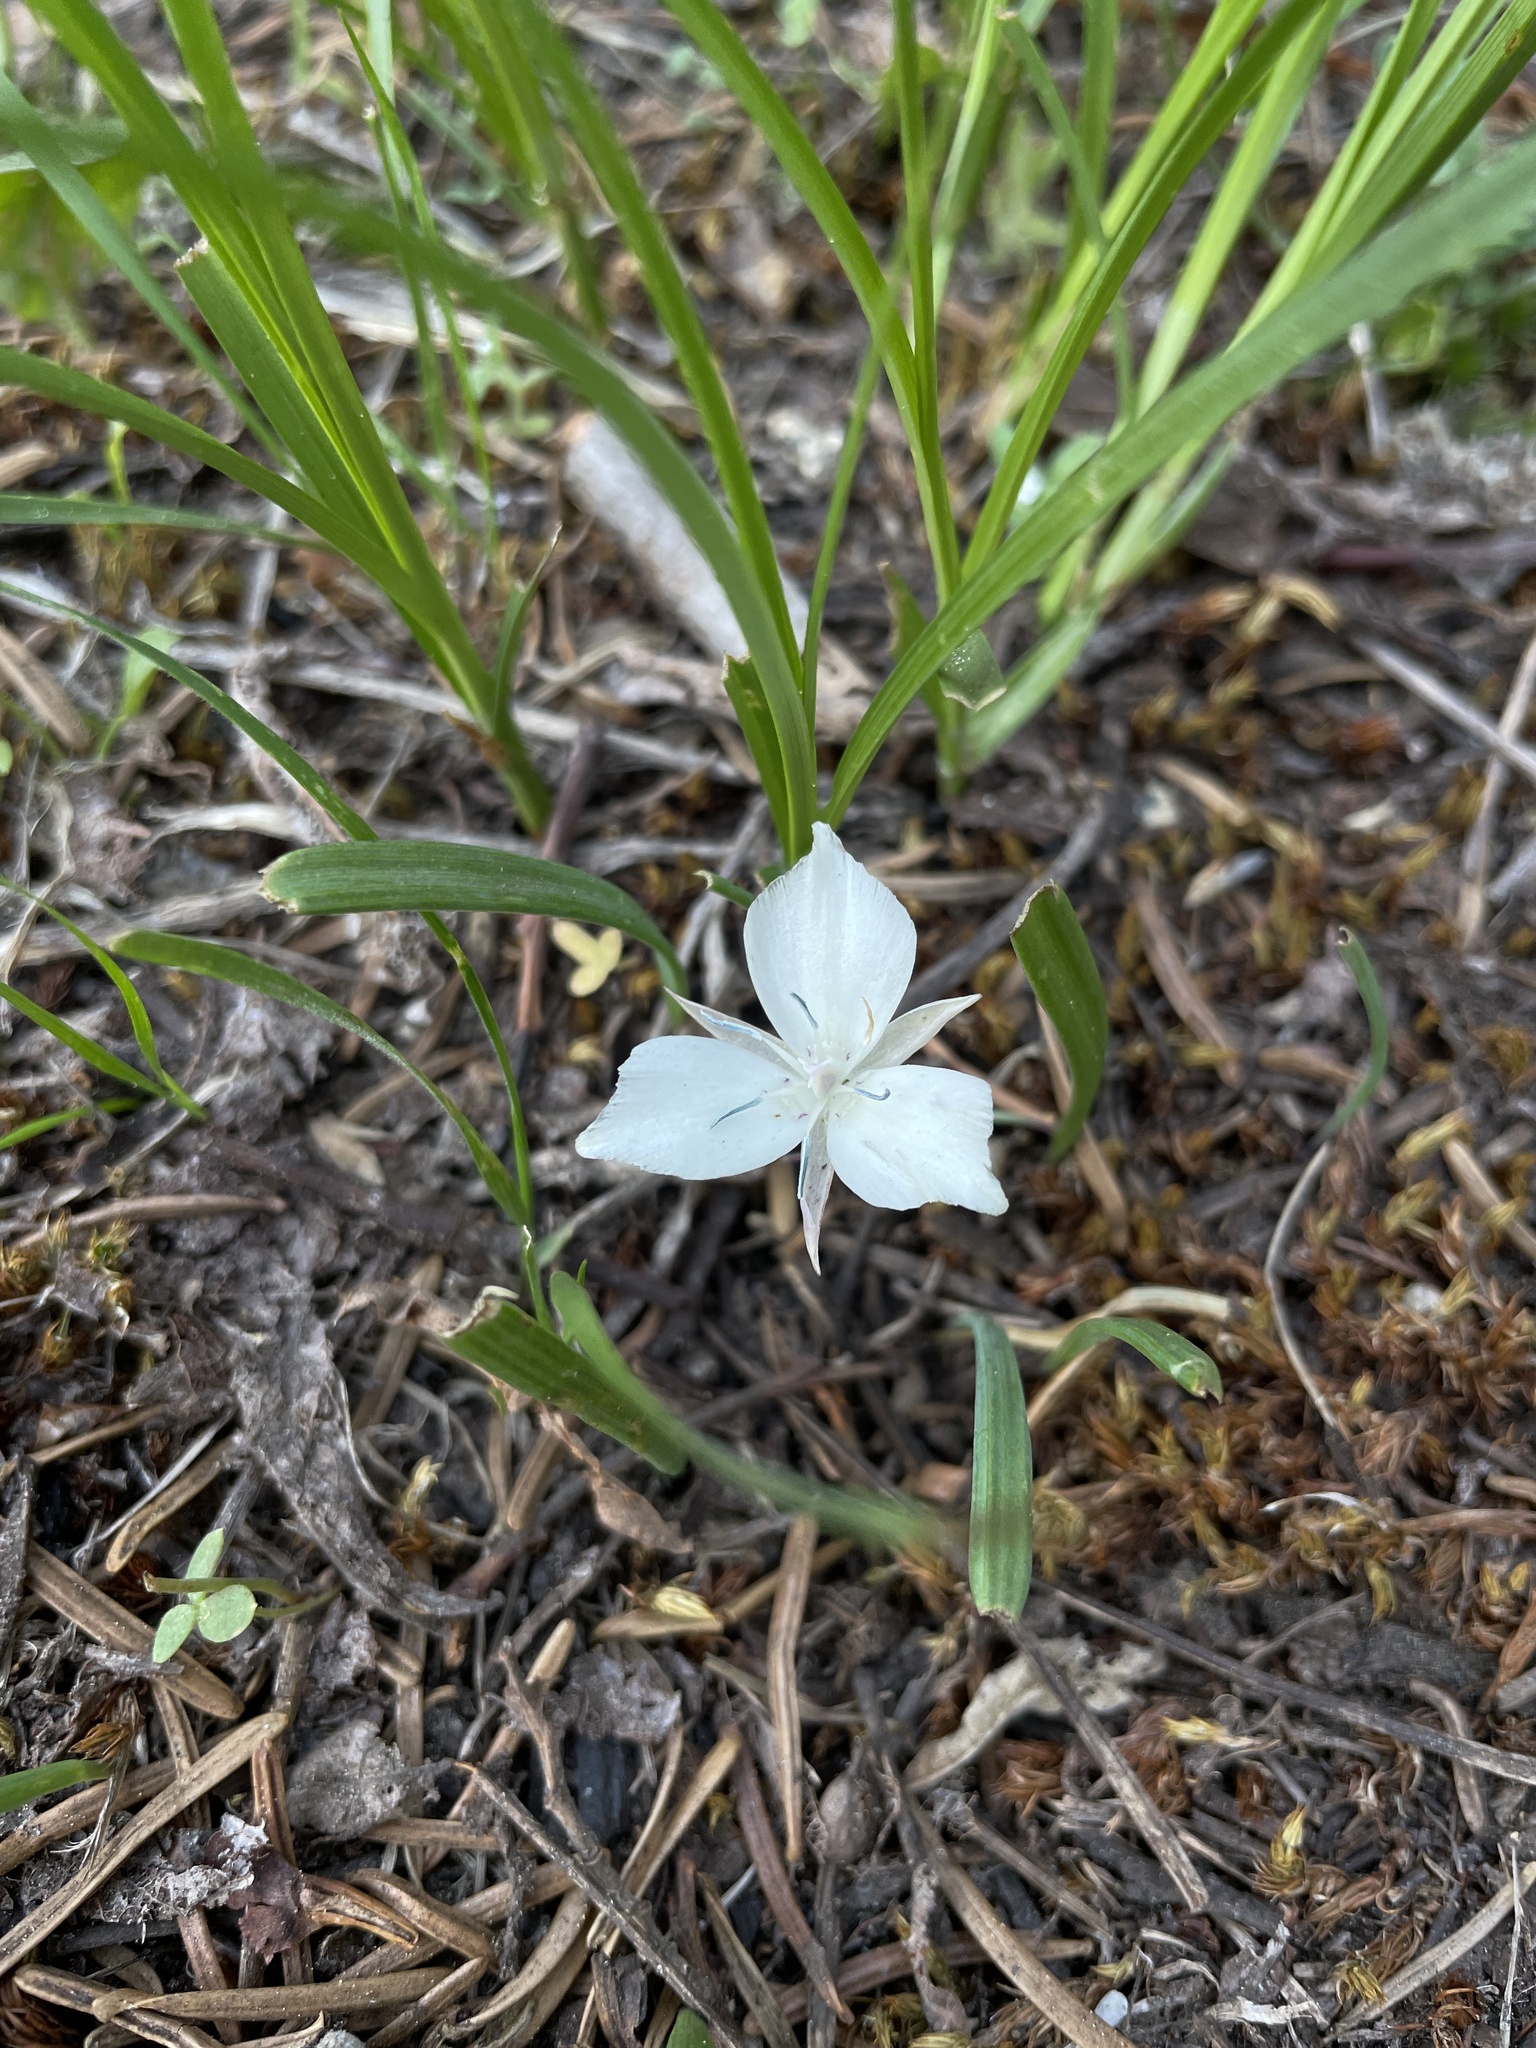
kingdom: Plantae
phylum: Tracheophyta
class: Liliopsida
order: Liliales
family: Liliaceae
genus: Calochortus
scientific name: Calochortus minimus
